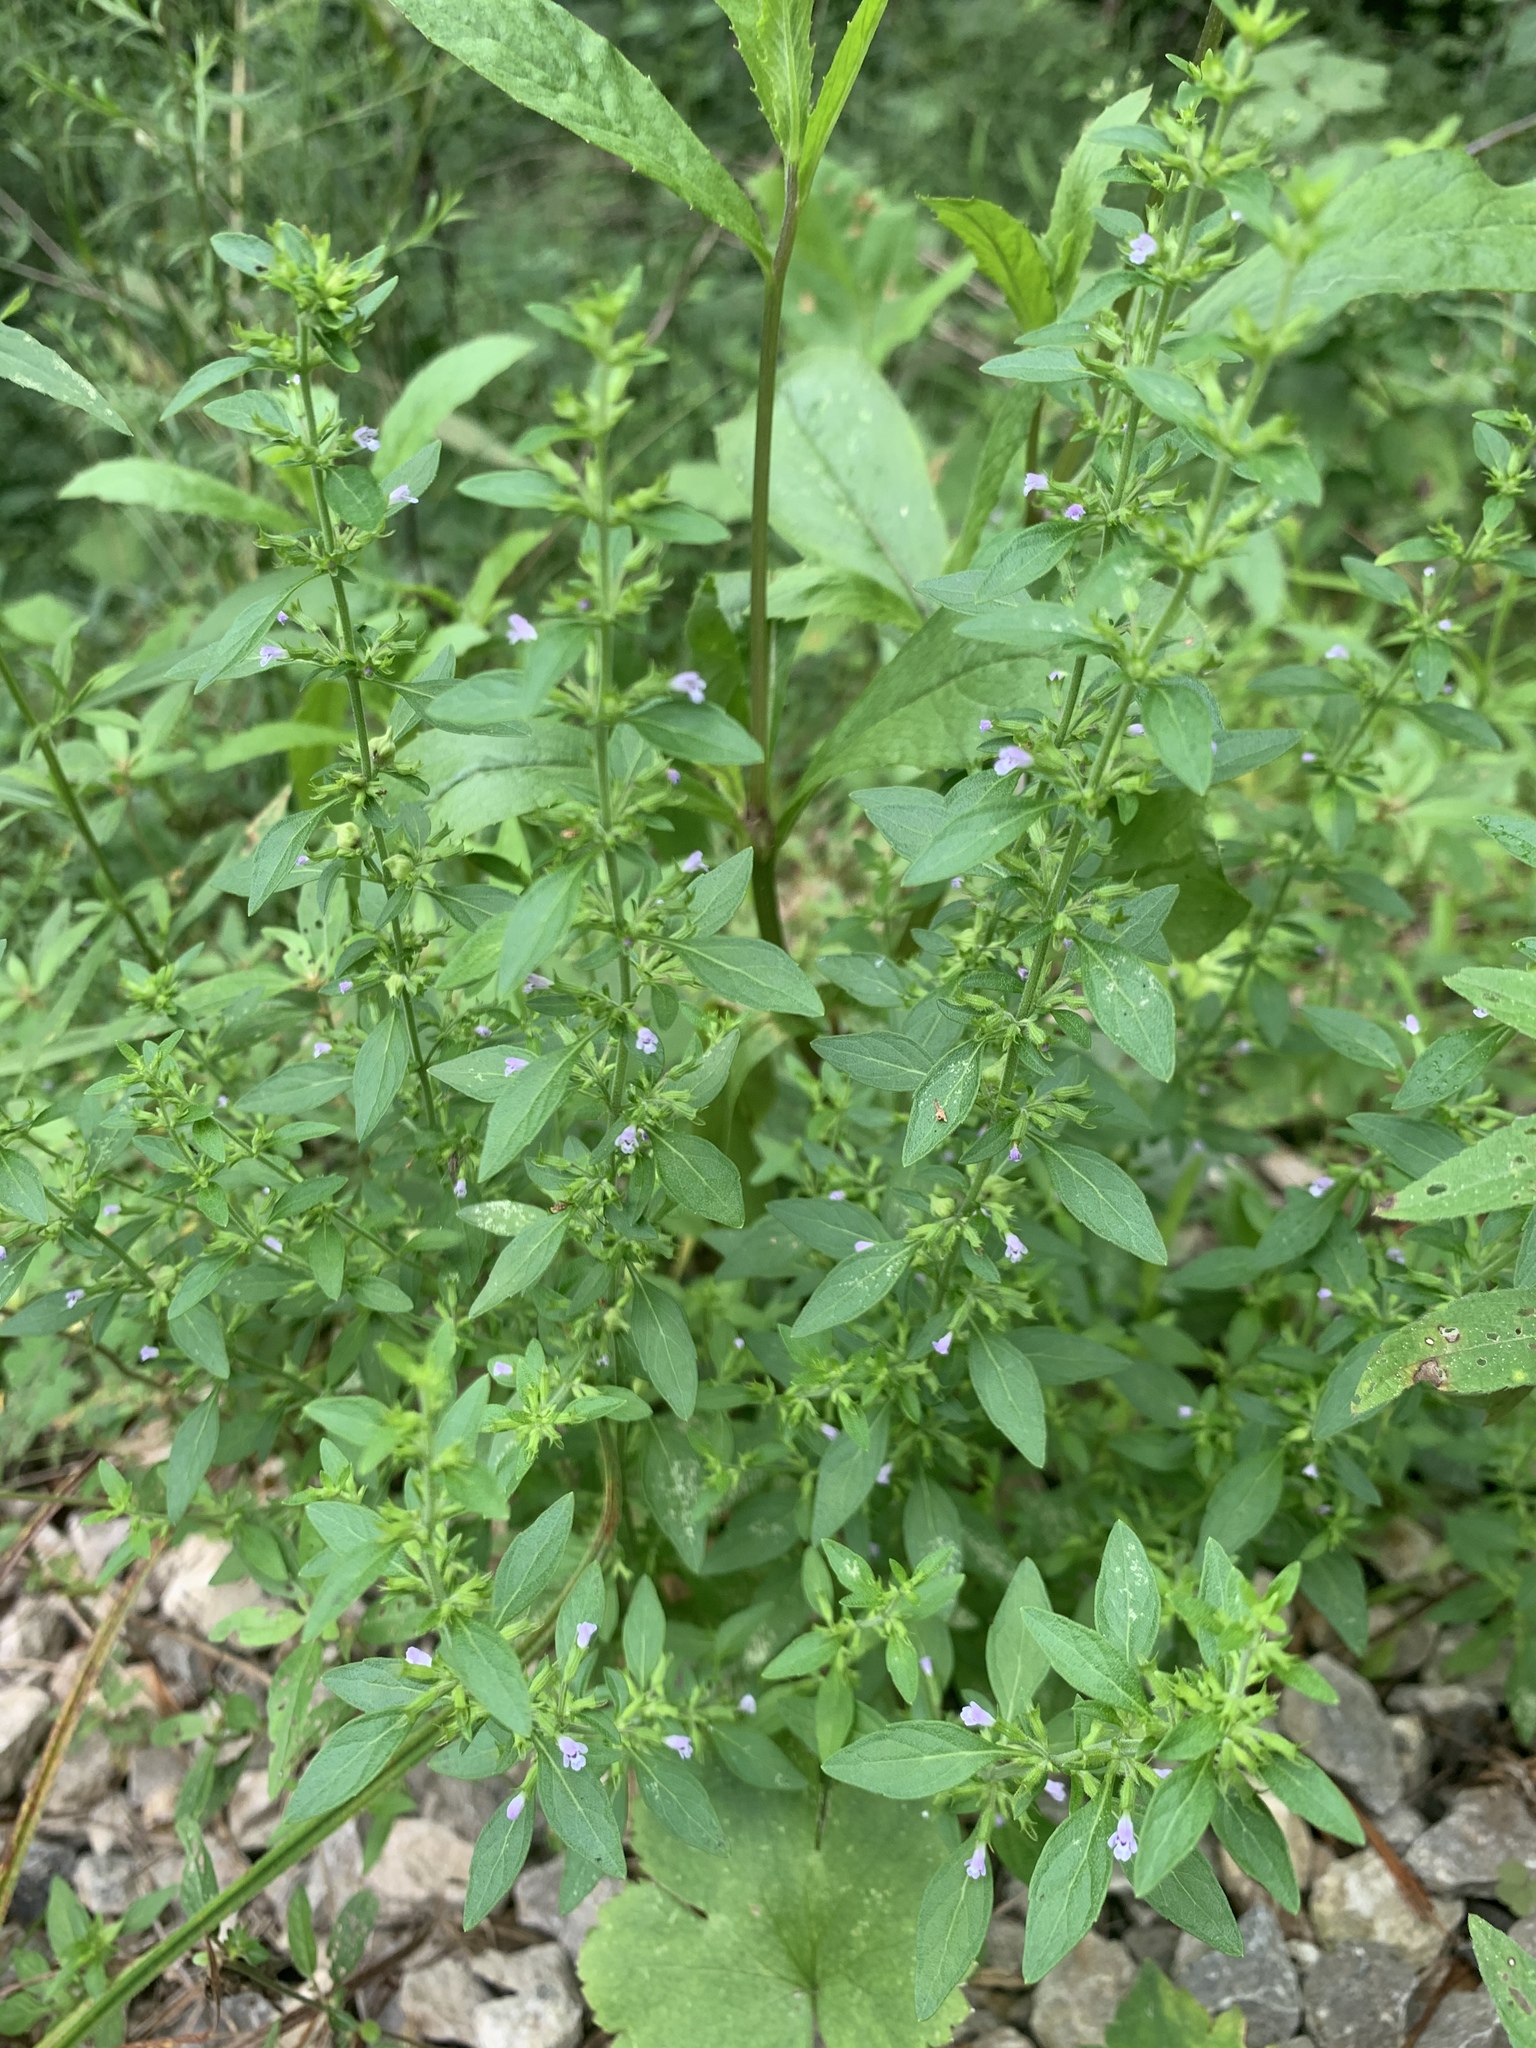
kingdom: Plantae
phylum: Tracheophyta
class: Magnoliopsida
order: Lamiales
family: Lamiaceae
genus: Hedeoma
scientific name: Hedeoma pulegioides
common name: American false pennyroyal
